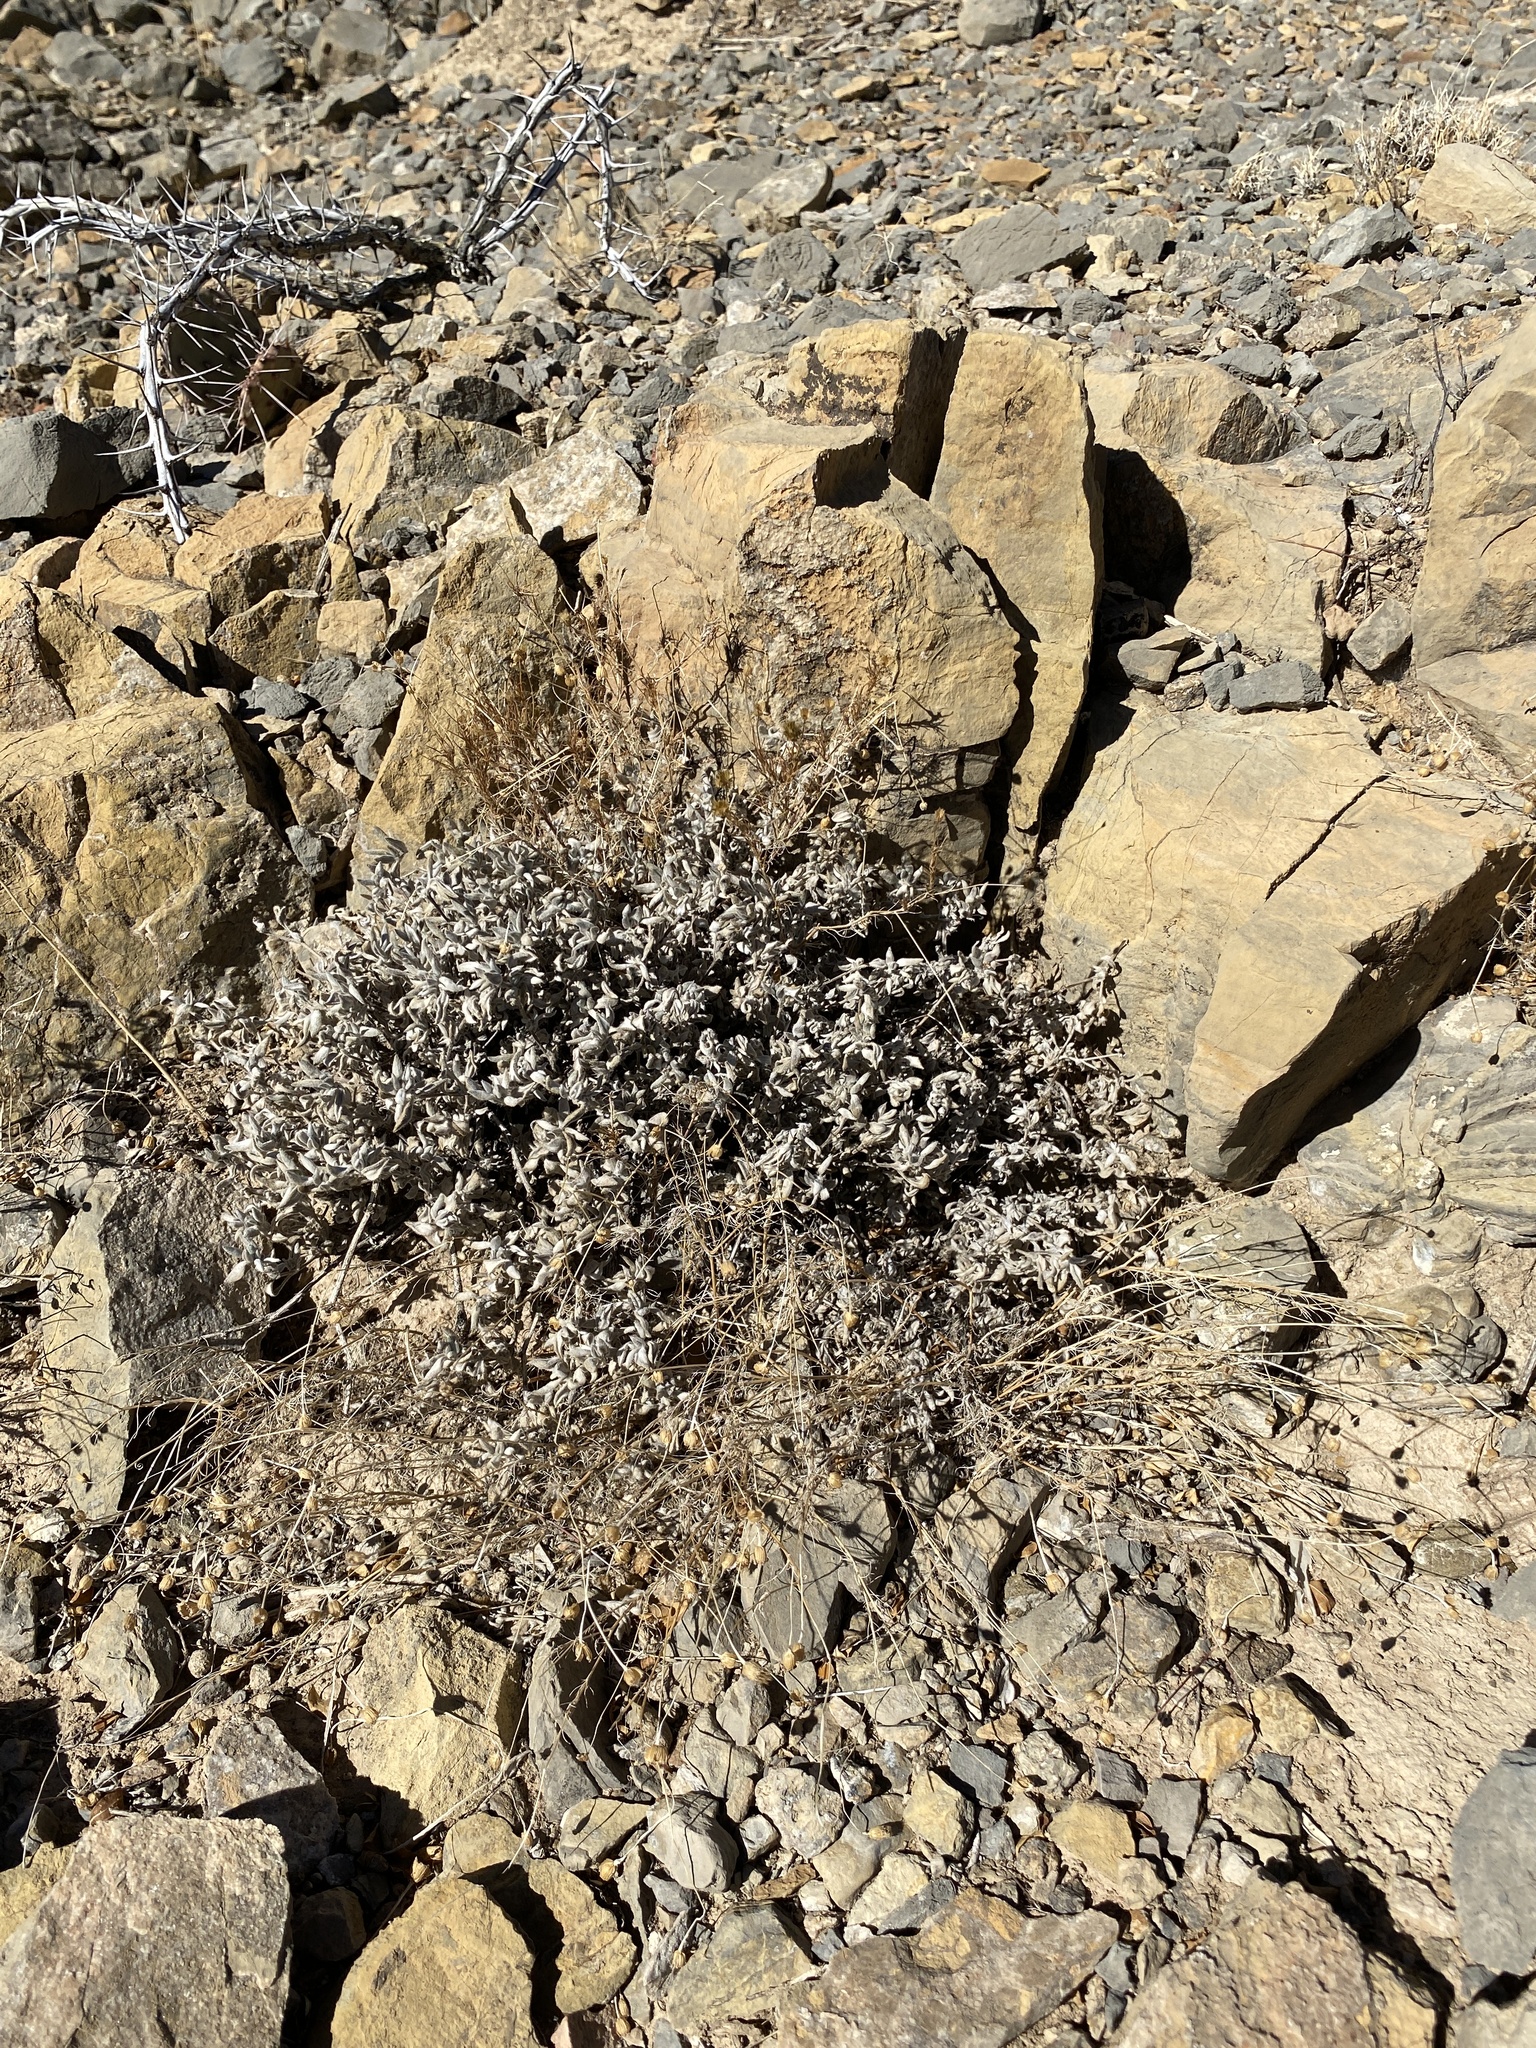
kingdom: Plantae
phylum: Tracheophyta
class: Magnoliopsida
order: Boraginales
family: Ehretiaceae
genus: Tiquilia
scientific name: Tiquilia canescens
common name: Hairy tiquilia
